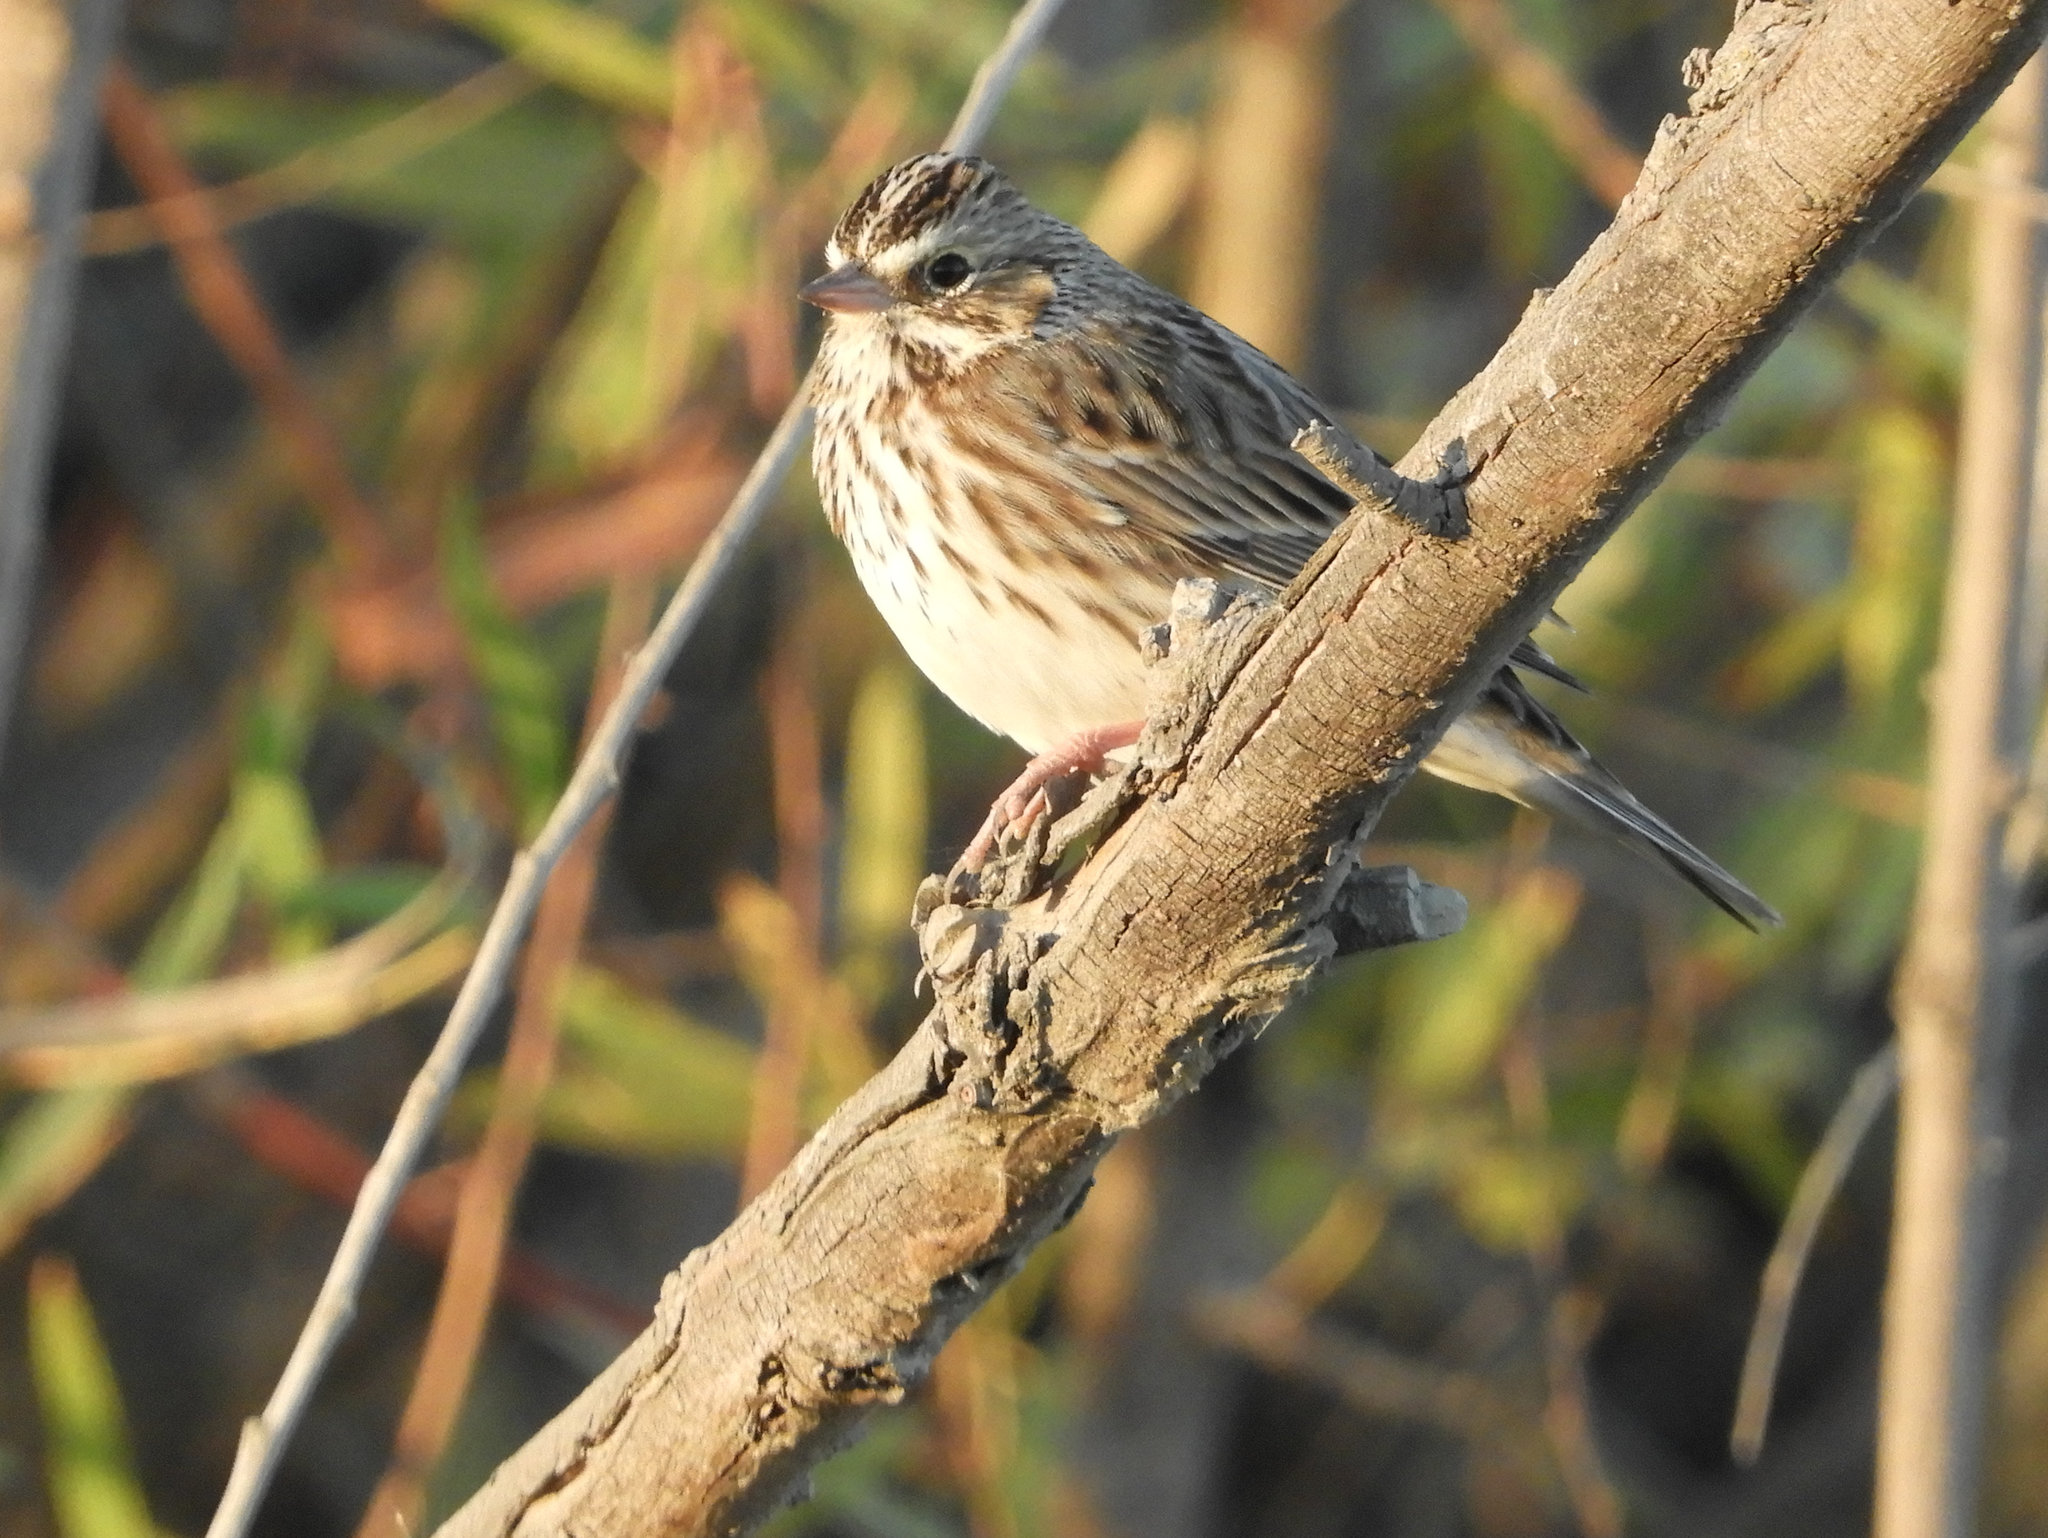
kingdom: Animalia
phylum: Chordata
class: Aves
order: Passeriformes
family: Passerellidae
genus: Passerculus
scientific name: Passerculus sandwichensis
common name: Savannah sparrow
